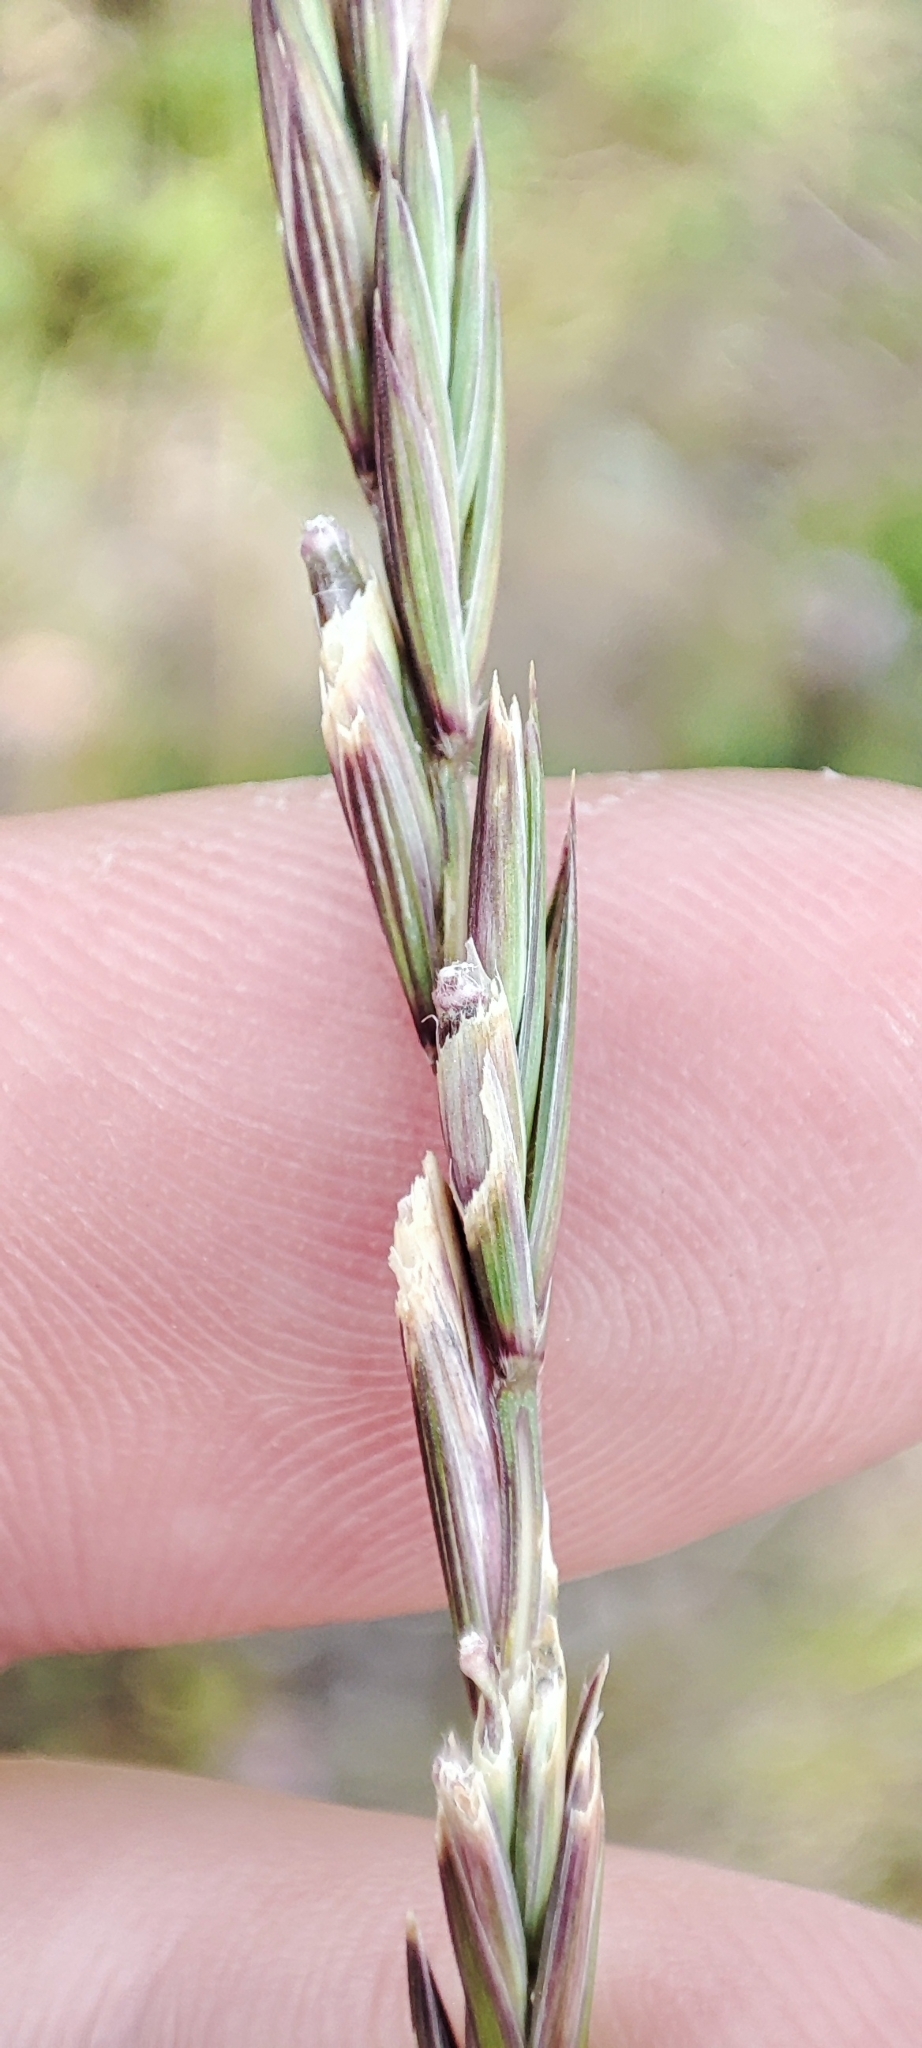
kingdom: Plantae
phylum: Tracheophyta
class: Liliopsida
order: Poales
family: Poaceae
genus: Elymus
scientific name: Elymus fibrosus
